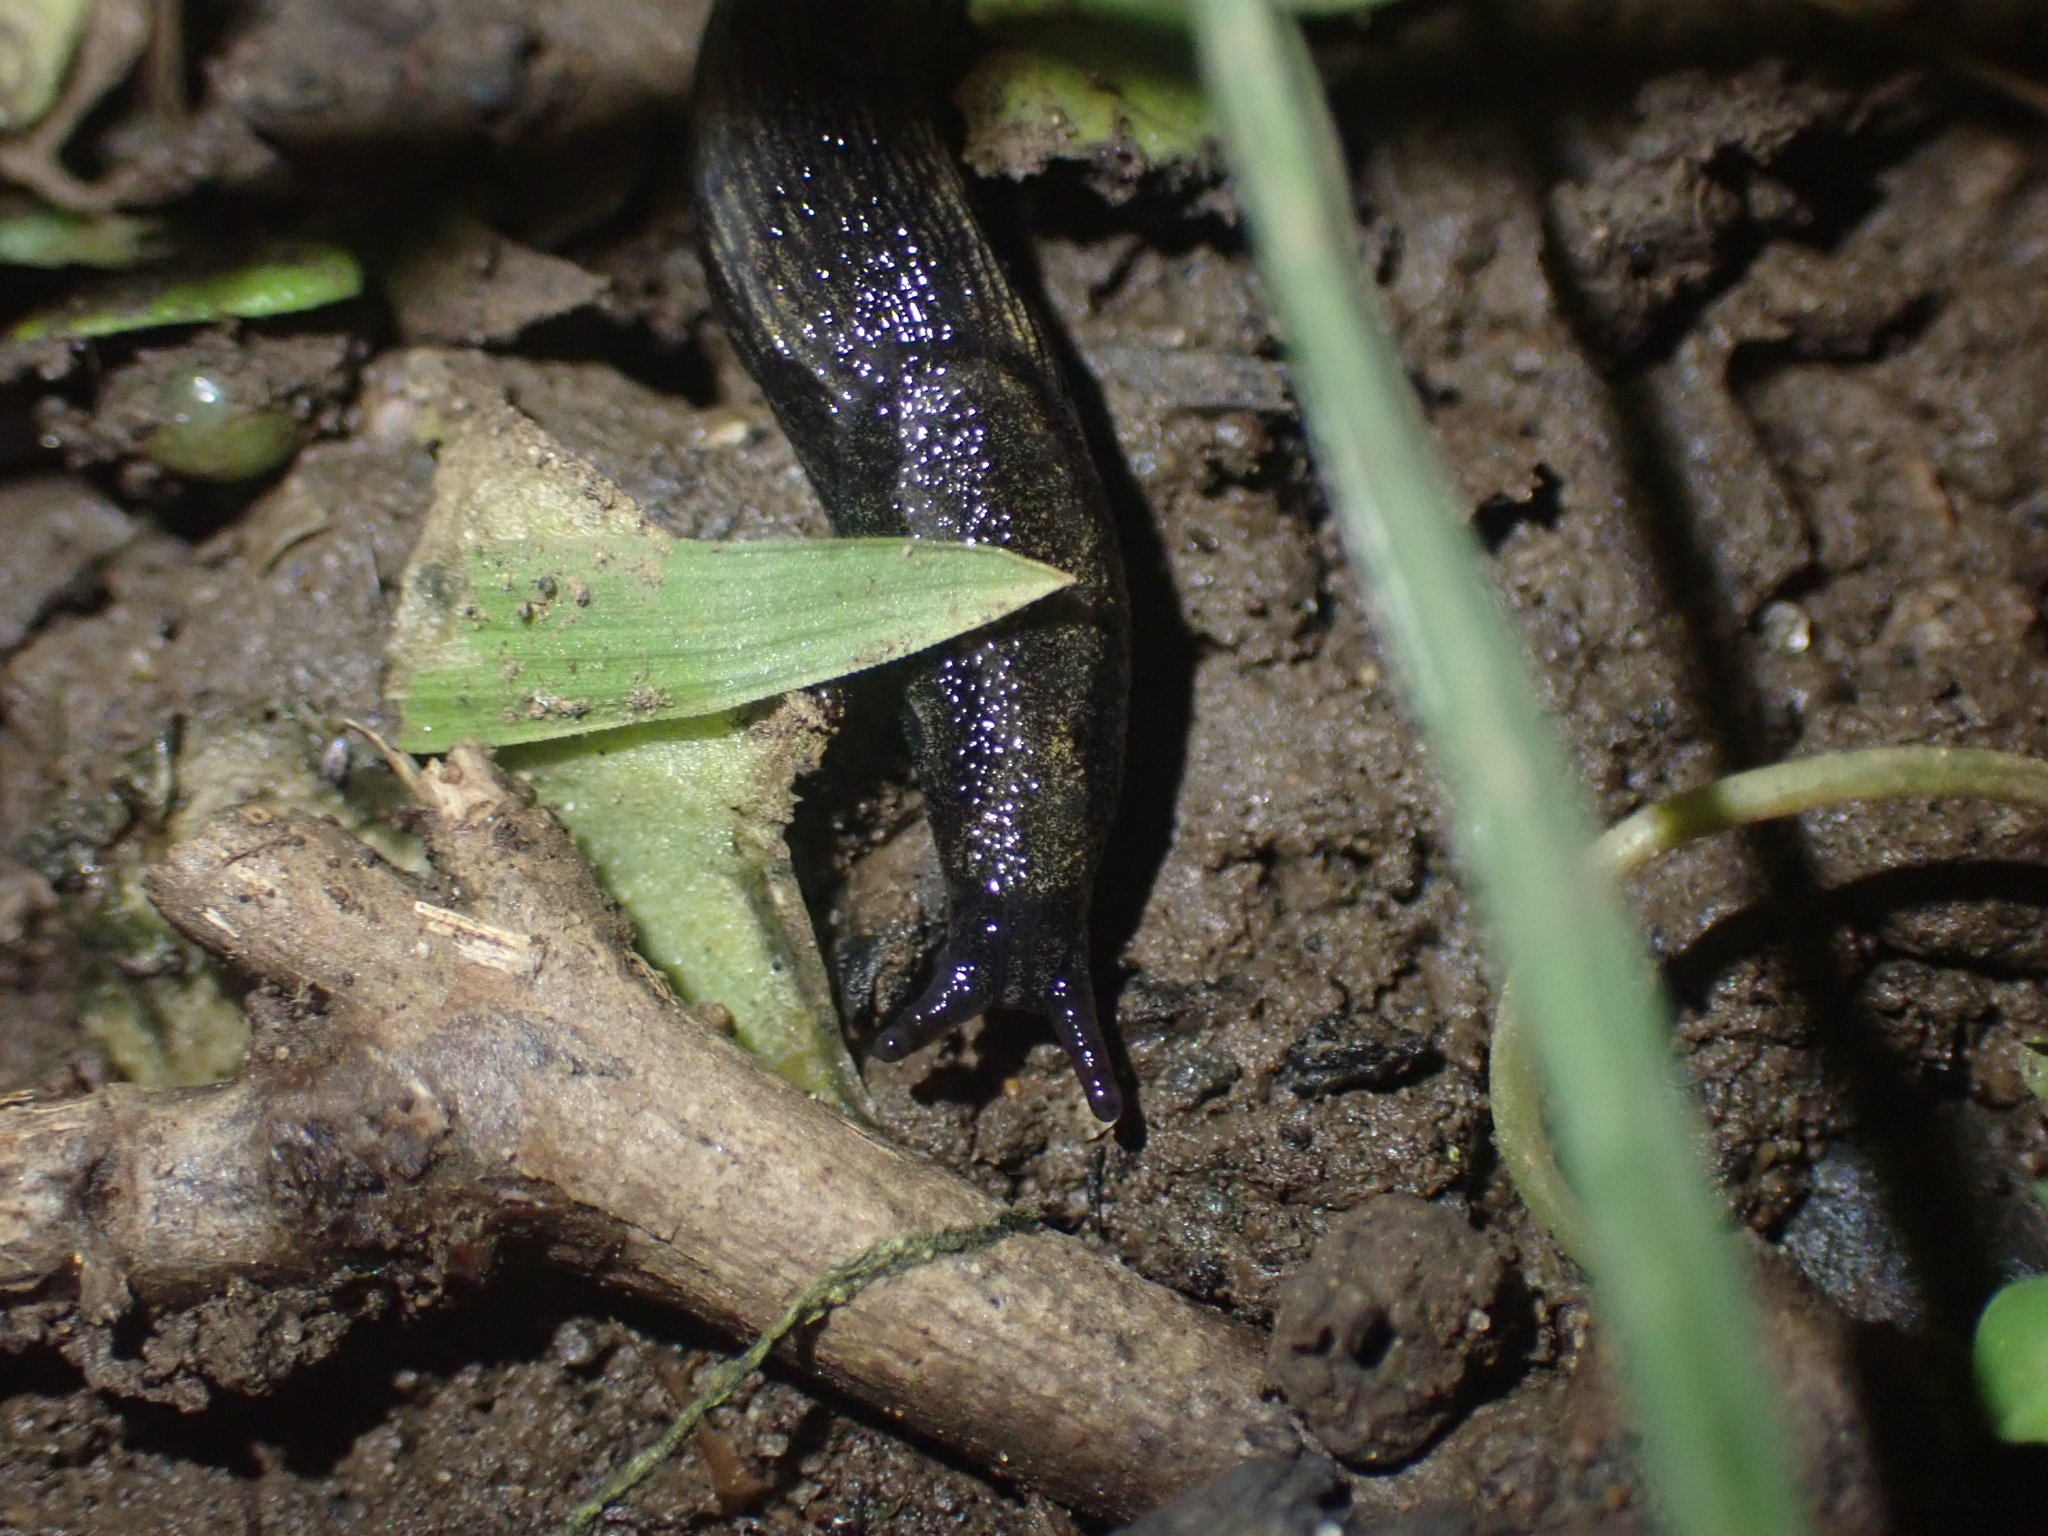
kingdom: Animalia
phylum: Mollusca
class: Gastropoda
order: Stylommatophora
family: Arionidae
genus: Kobeltia
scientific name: Kobeltia
